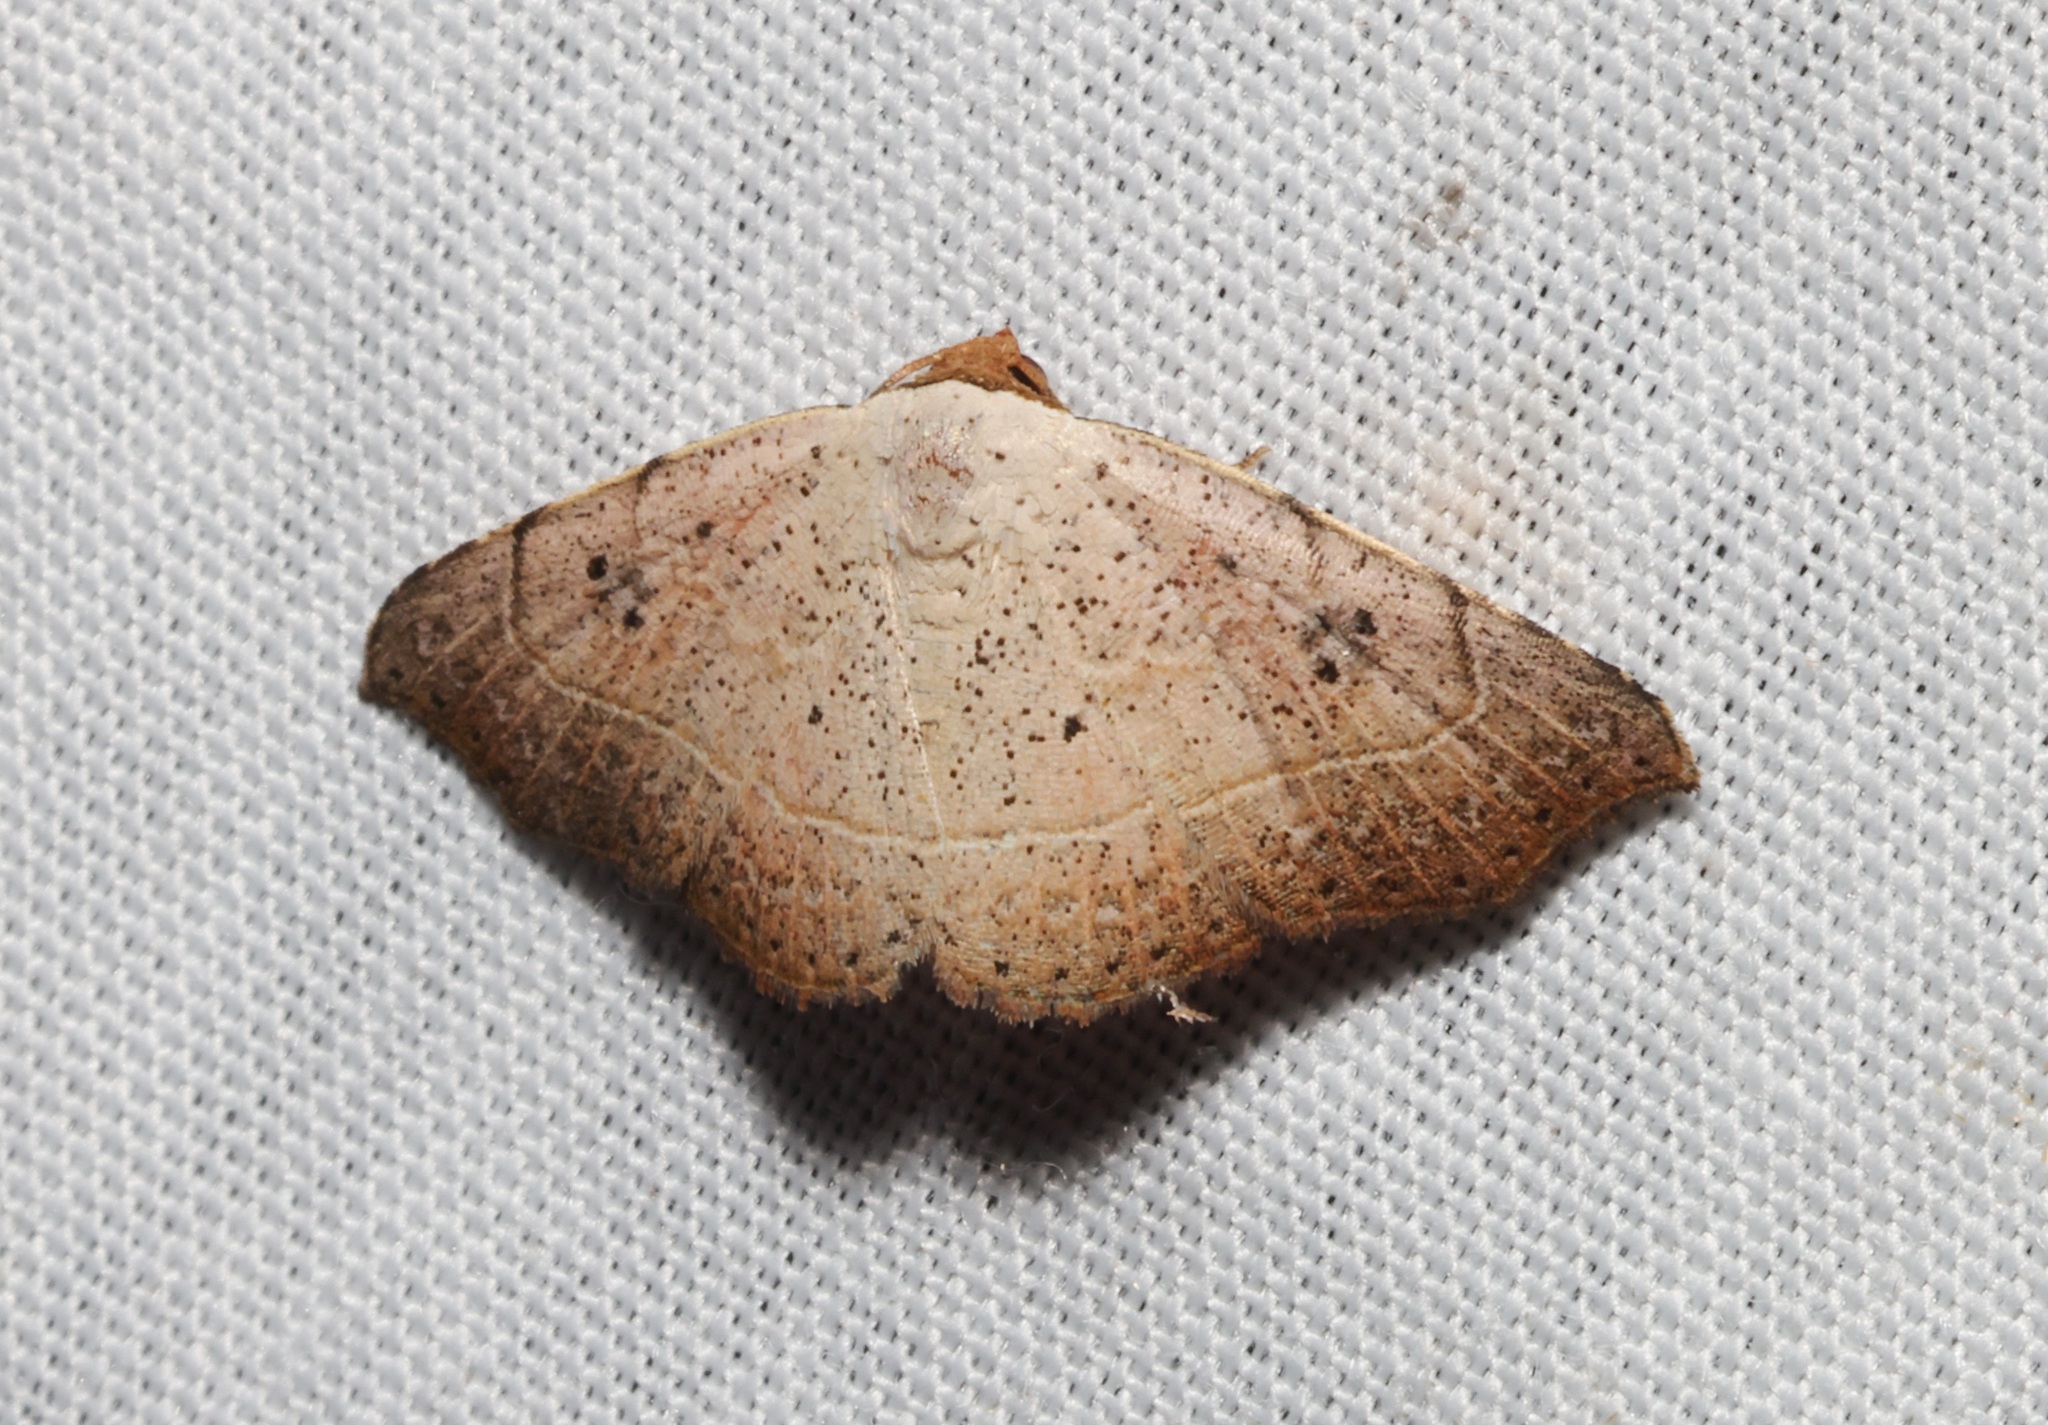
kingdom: Animalia
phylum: Arthropoda
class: Insecta
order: Lepidoptera
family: Erebidae
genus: Laspeyria
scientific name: Laspeyria ruficeps
